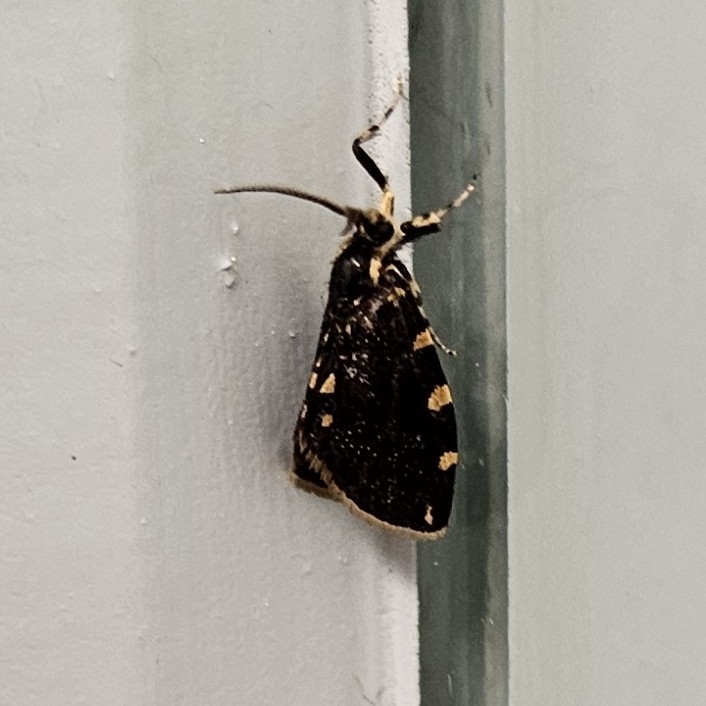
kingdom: Animalia
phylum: Arthropoda
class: Insecta
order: Lepidoptera
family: Psychidae
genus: Cebysa
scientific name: Cebysa leucotelus
